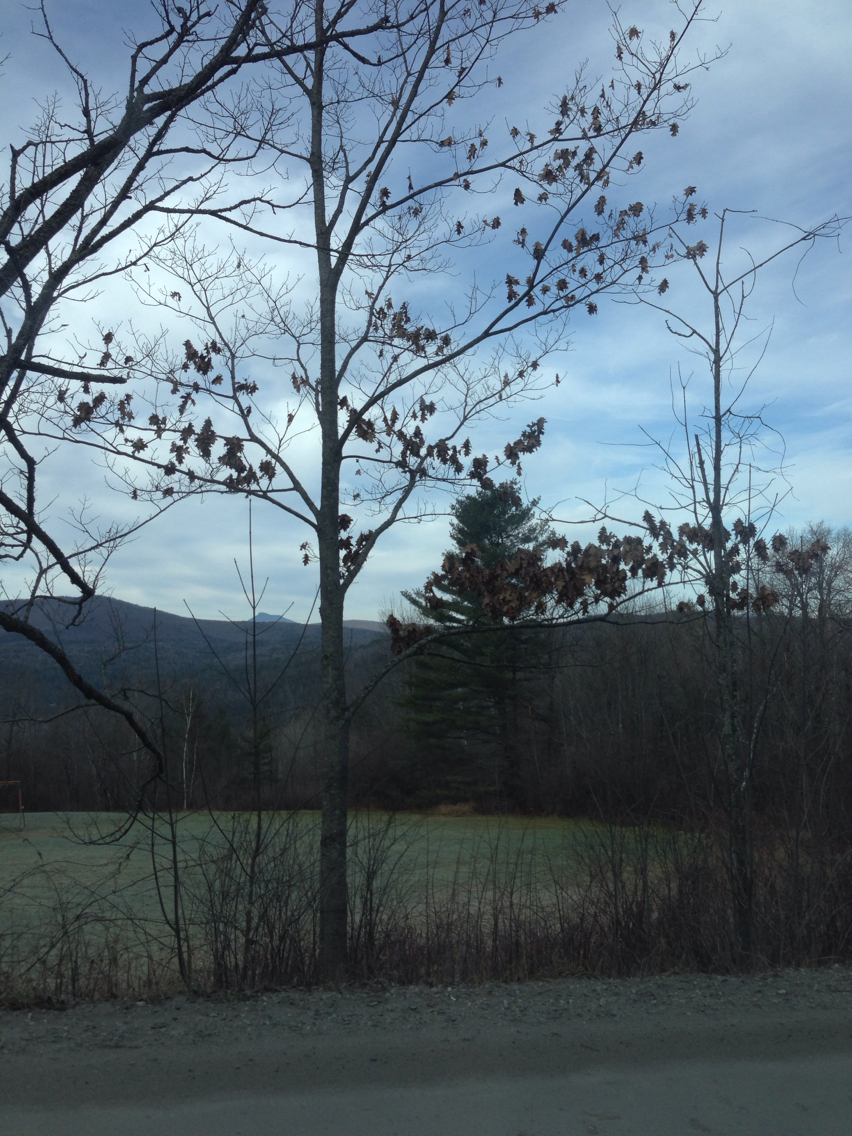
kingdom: Plantae
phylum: Tracheophyta
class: Magnoliopsida
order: Fagales
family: Fagaceae
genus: Quercus
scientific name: Quercus rubra
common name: Red oak
